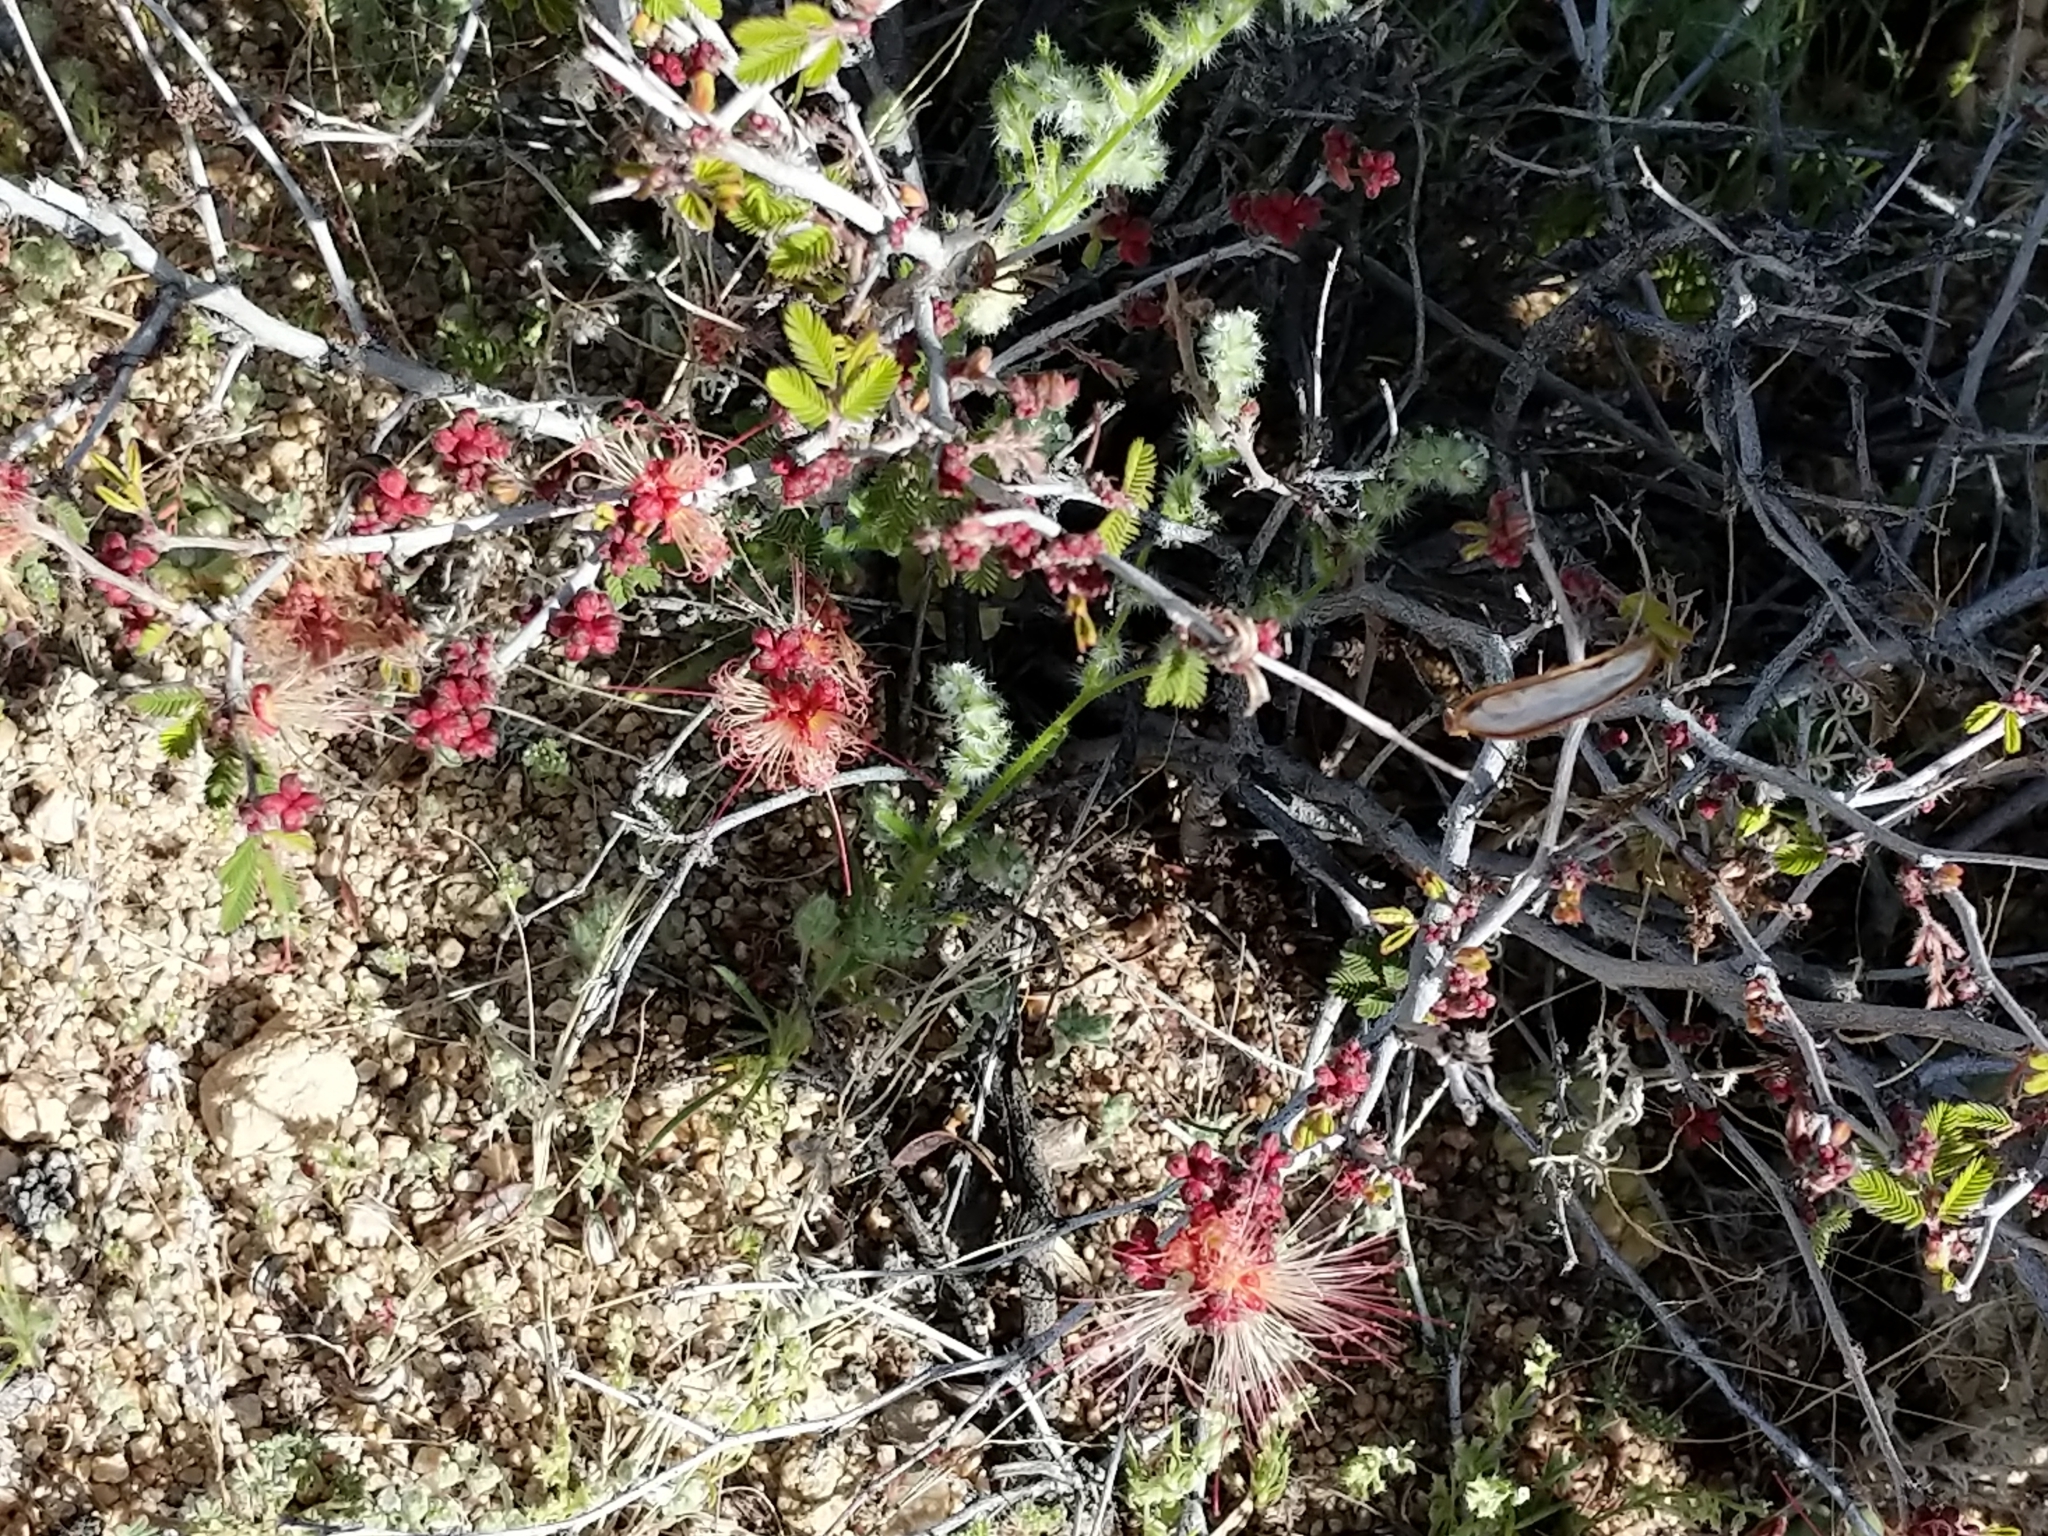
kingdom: Plantae
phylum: Tracheophyta
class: Magnoliopsida
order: Fabales
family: Fabaceae
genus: Calliandra
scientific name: Calliandra eriophylla
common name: Fairy-duster
